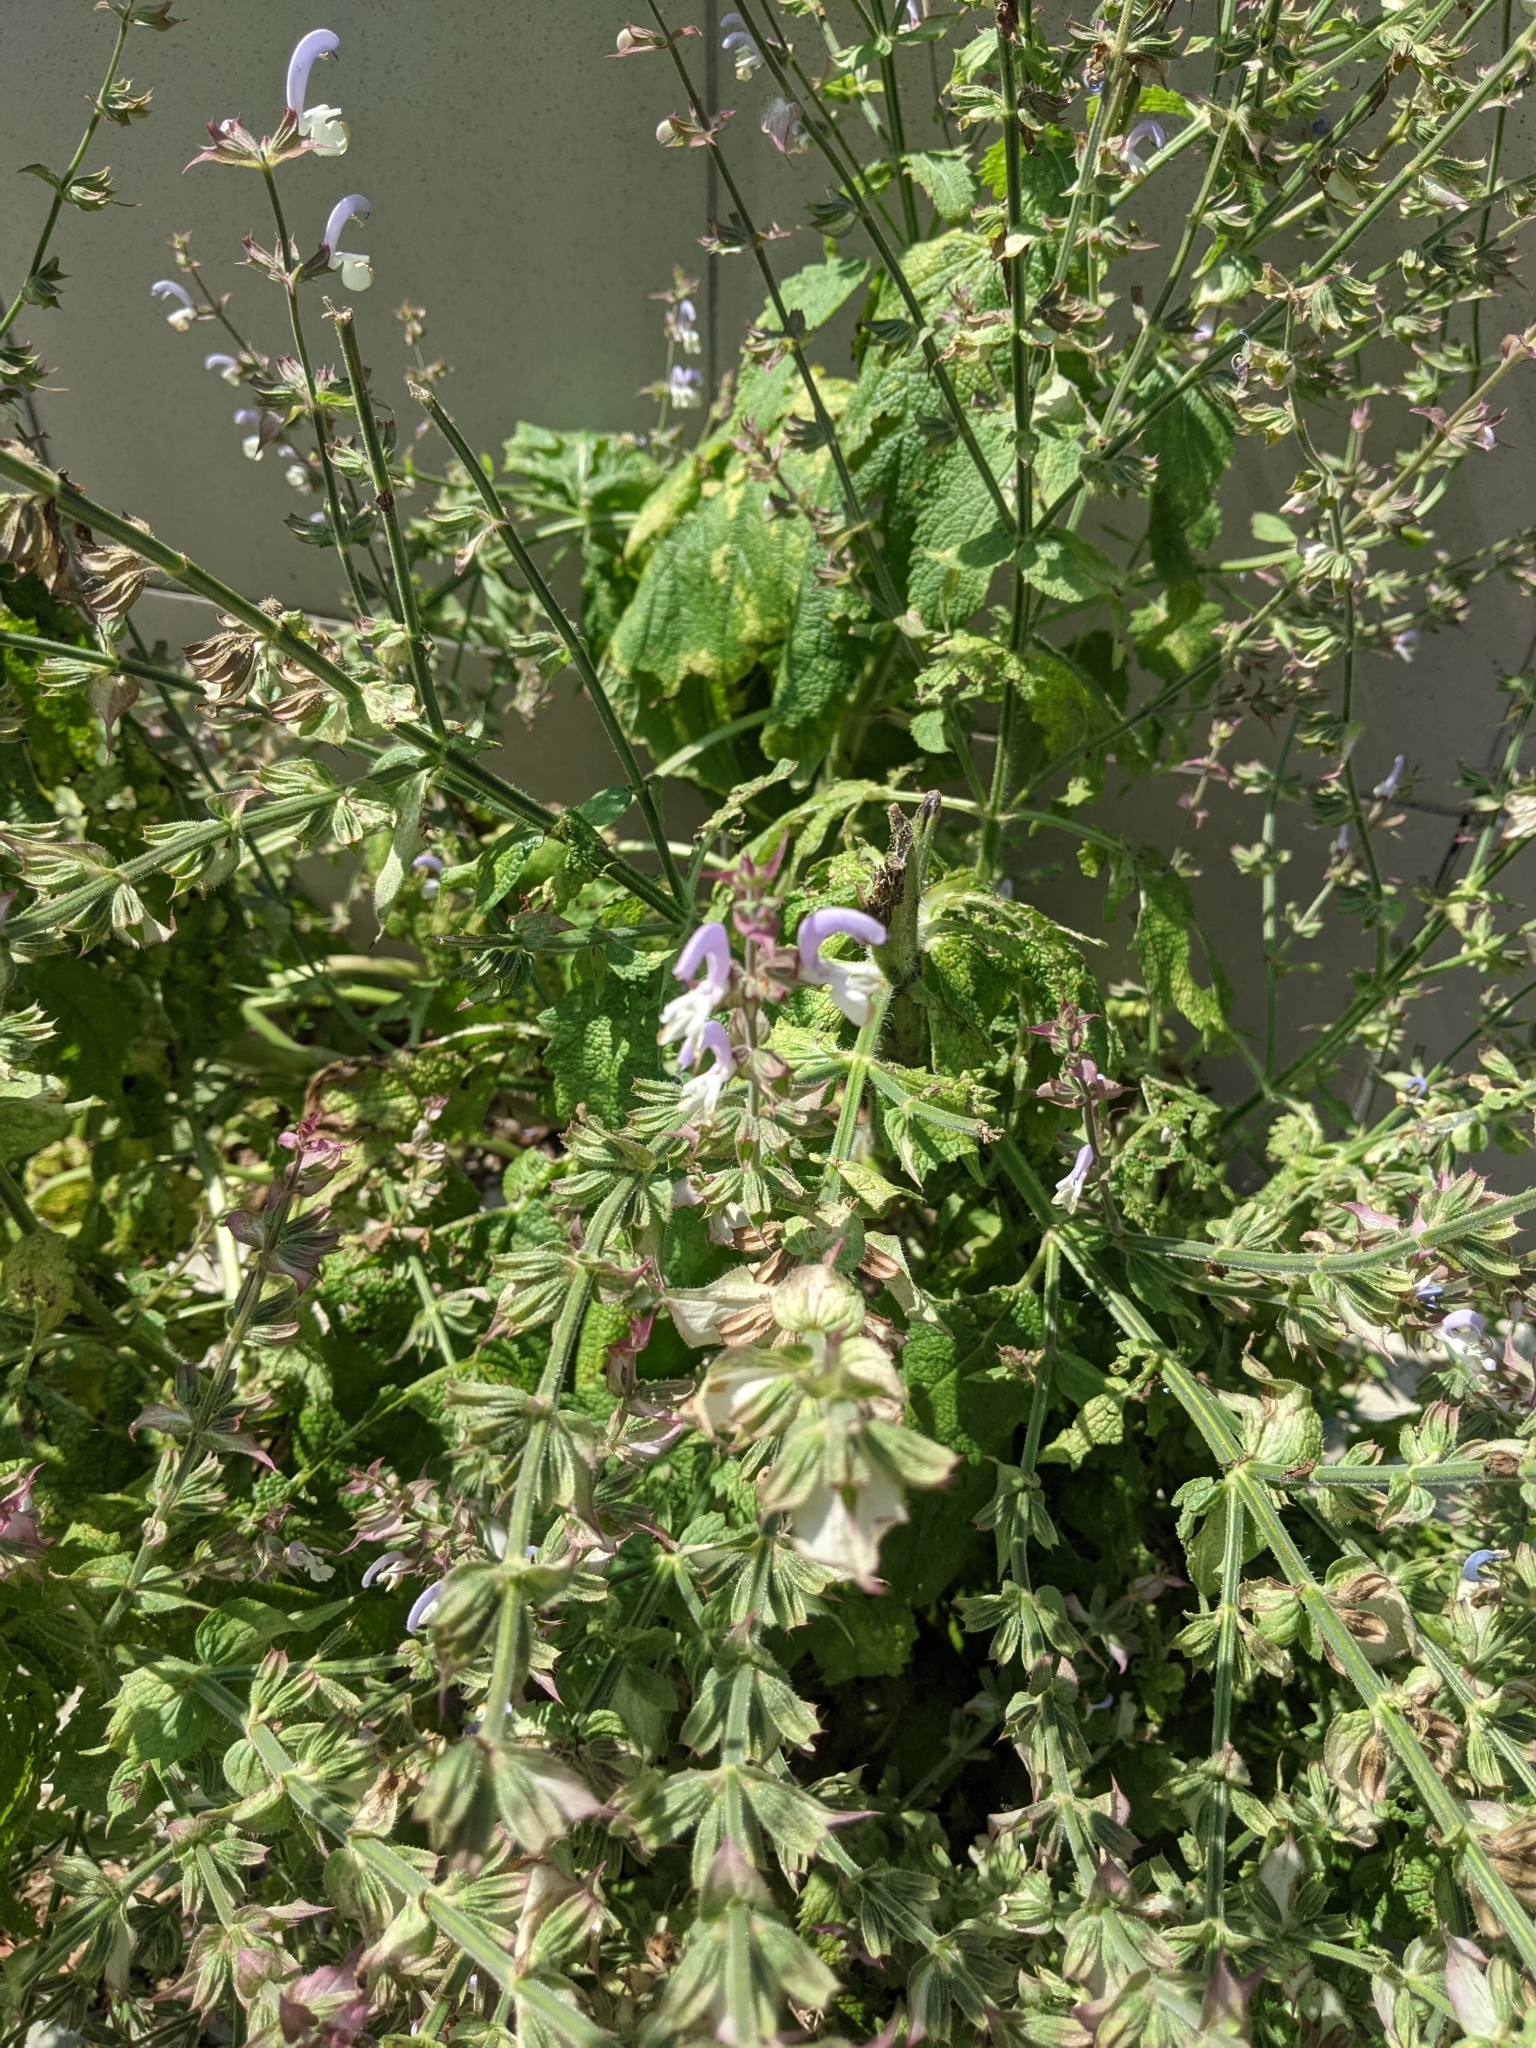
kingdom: Plantae
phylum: Tracheophyta
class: Magnoliopsida
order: Lamiales
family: Lamiaceae
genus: Salvia
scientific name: Salvia sclarea
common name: Clary
